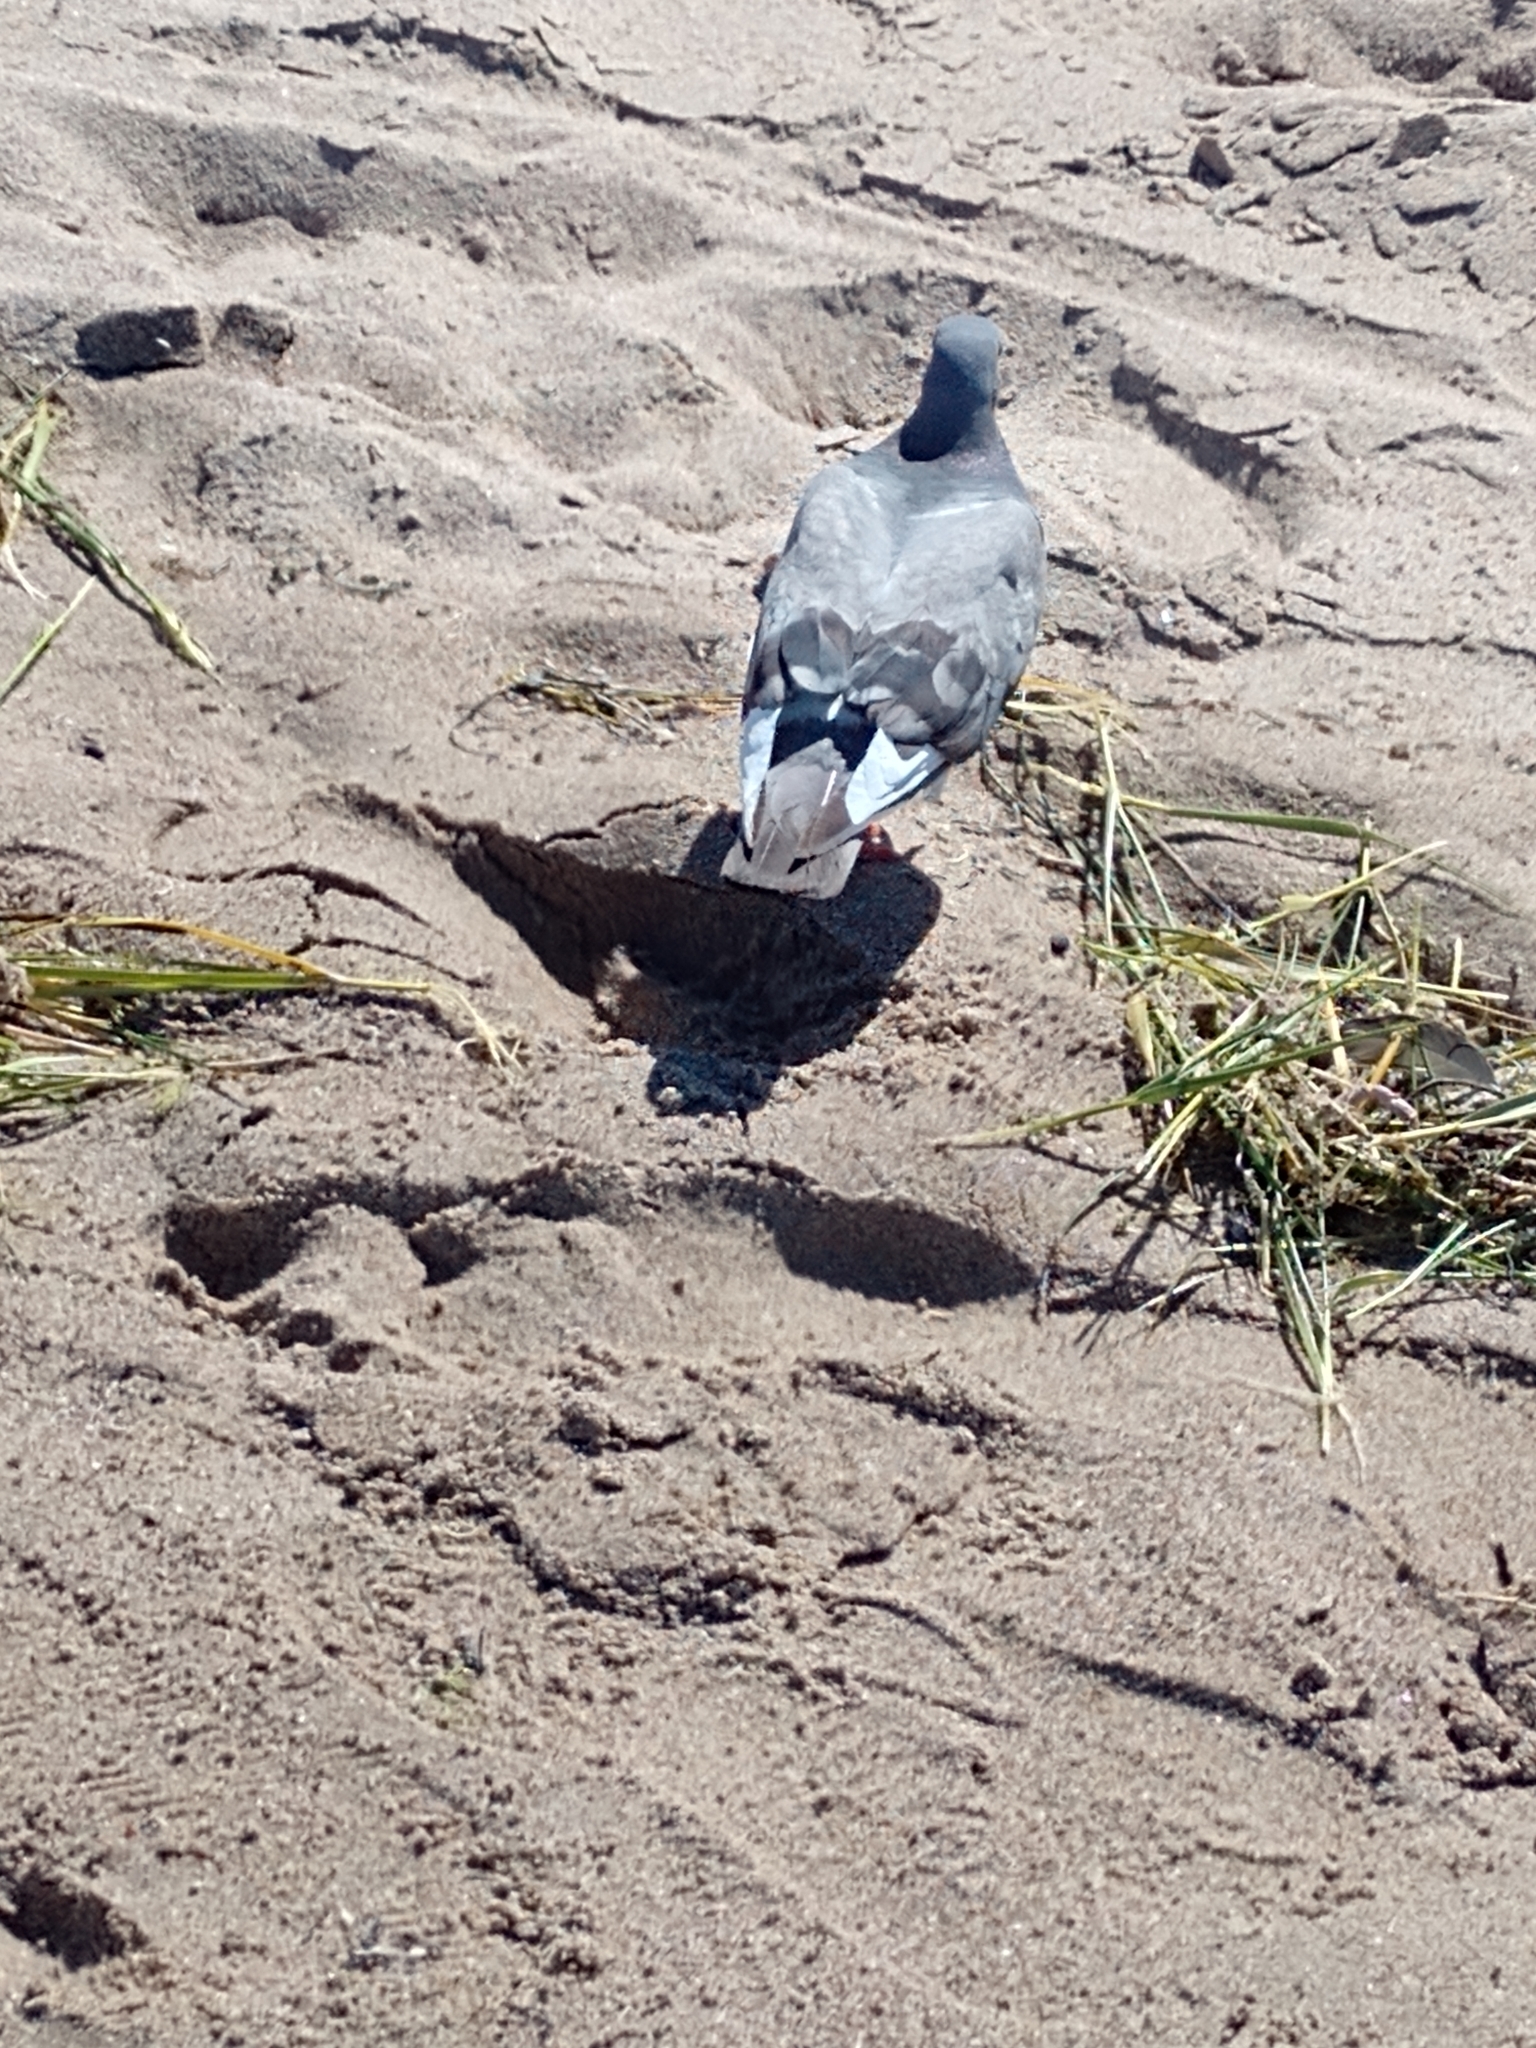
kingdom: Animalia
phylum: Chordata
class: Aves
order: Columbiformes
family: Columbidae
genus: Columba
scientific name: Columba livia
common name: Rock pigeon
